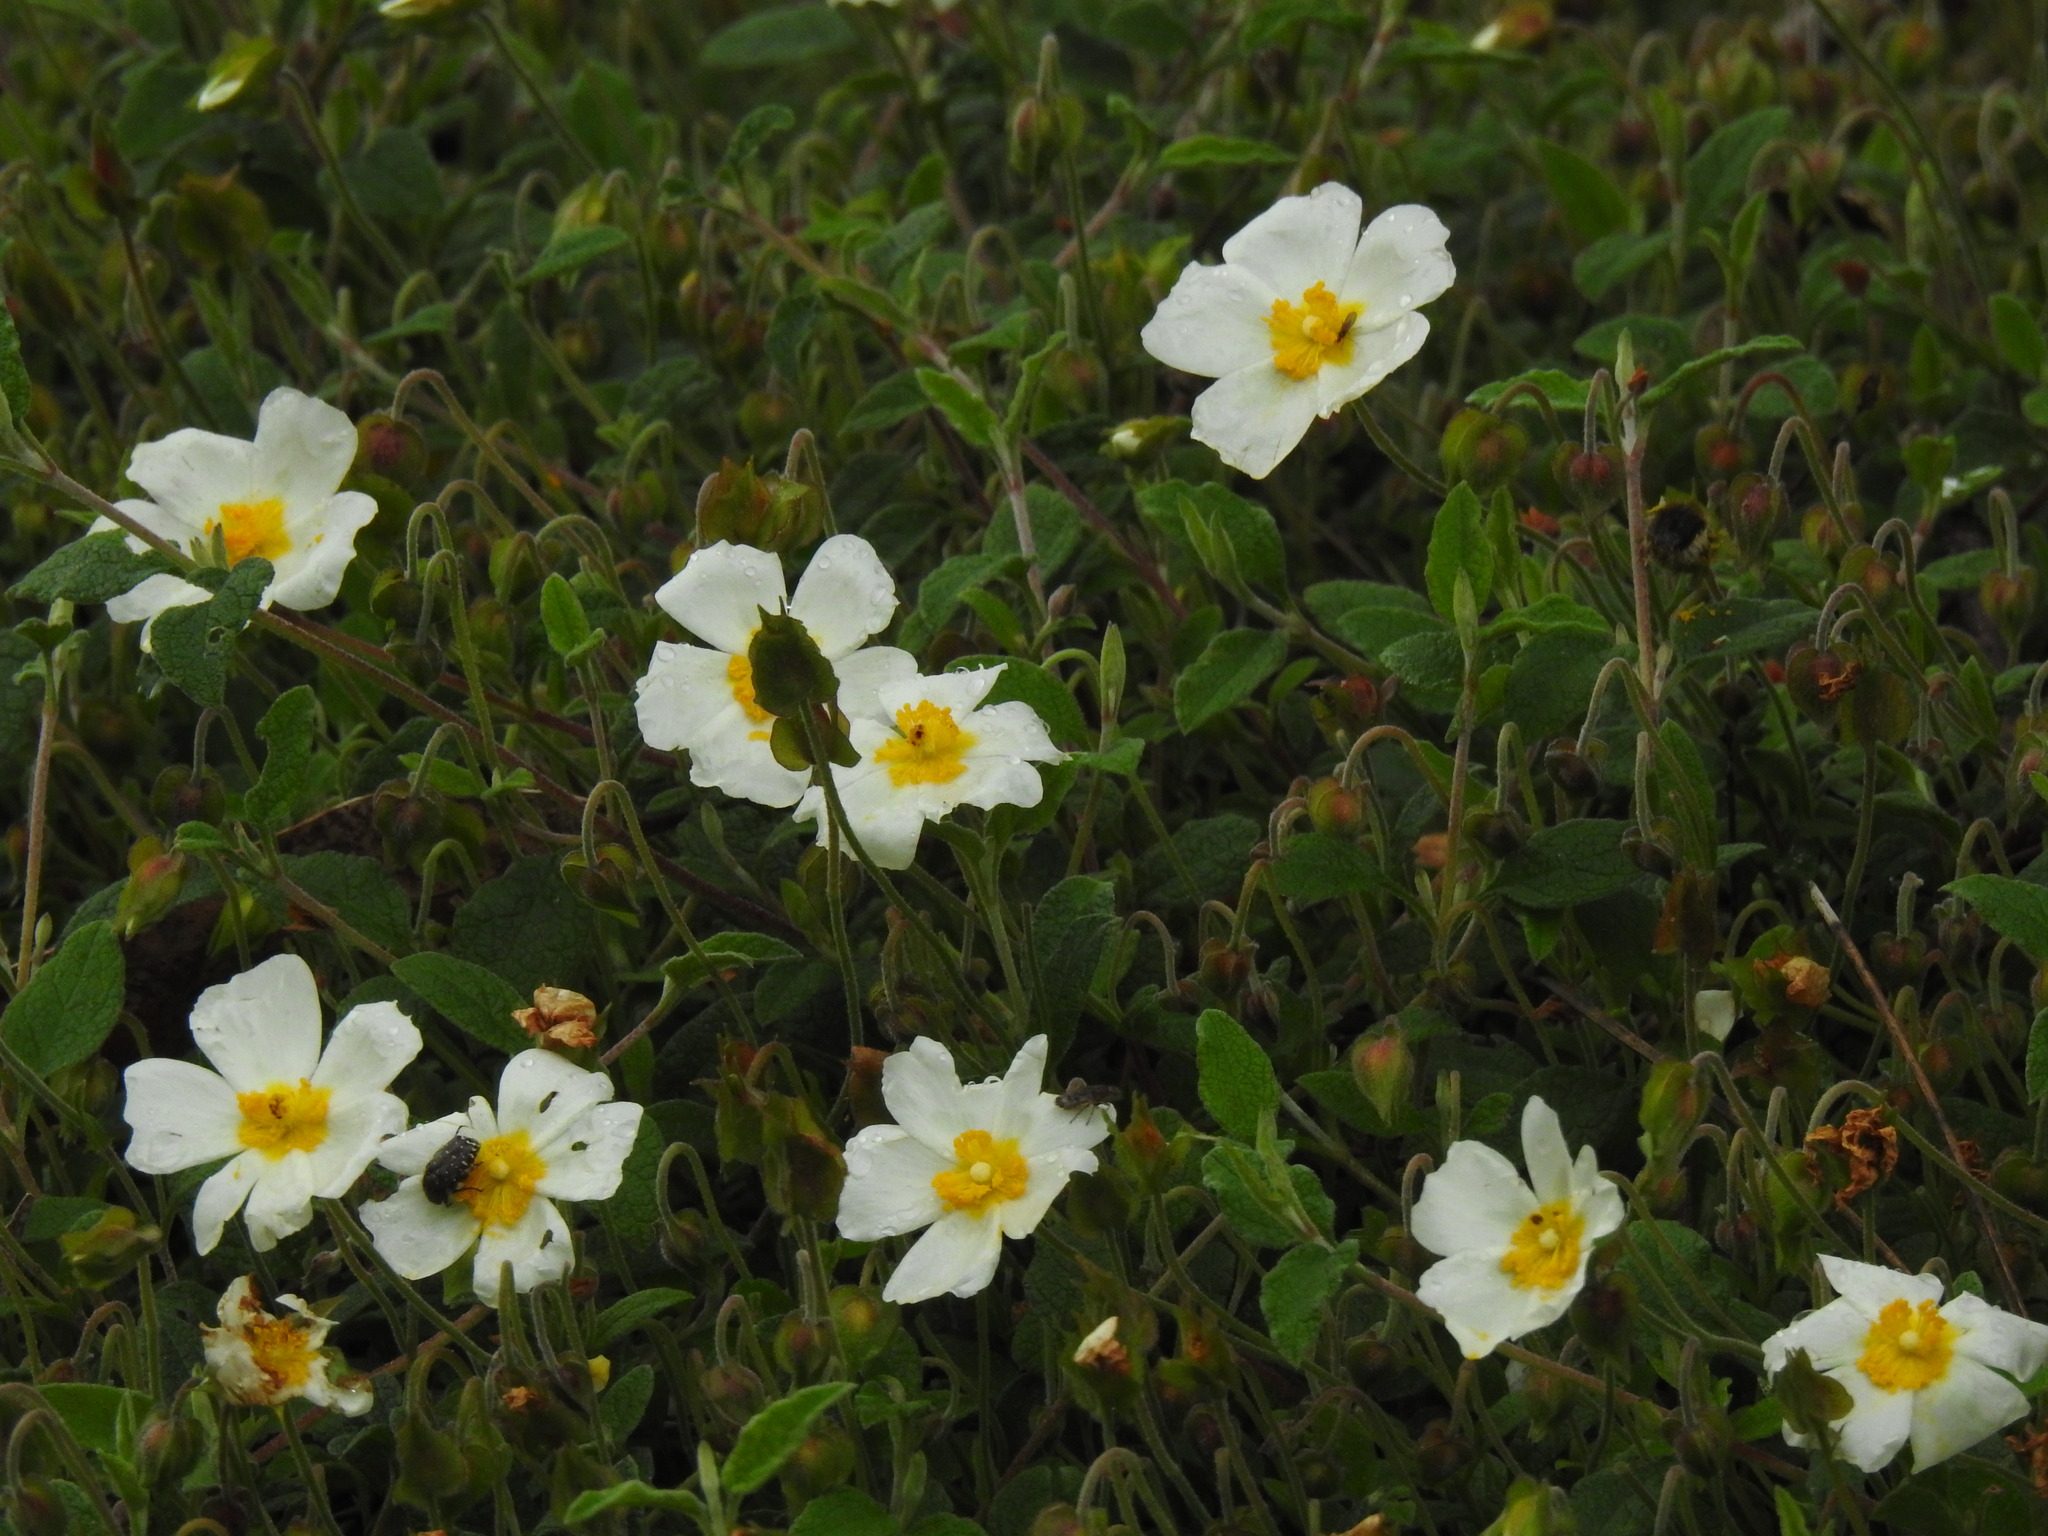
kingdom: Plantae
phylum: Tracheophyta
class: Magnoliopsida
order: Malvales
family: Cistaceae
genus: Cistus
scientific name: Cistus salviifolius
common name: Salvia cistus
